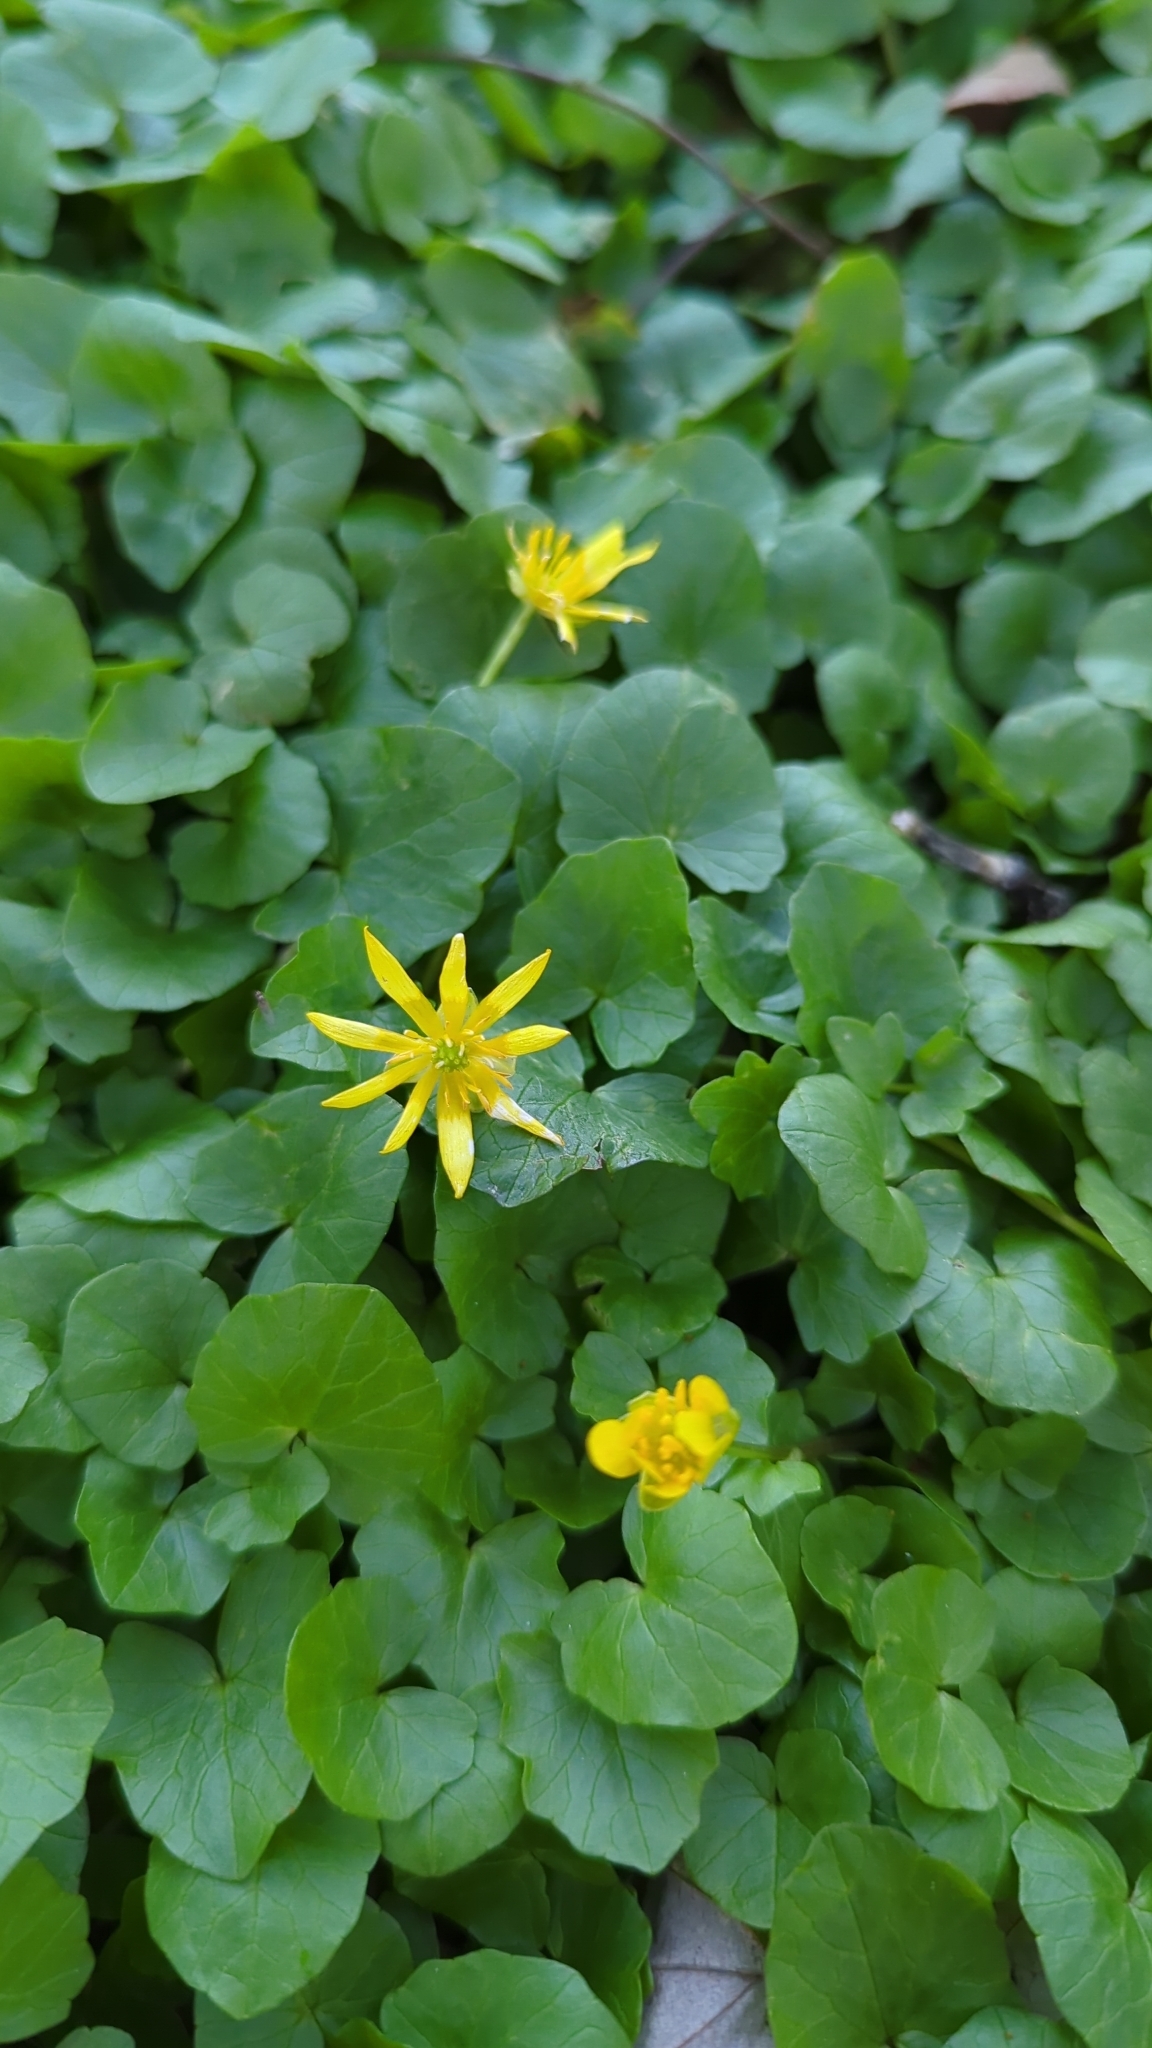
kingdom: Plantae
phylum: Tracheophyta
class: Magnoliopsida
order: Ranunculales
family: Ranunculaceae
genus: Ficaria
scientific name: Ficaria verna
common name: Lesser celandine
